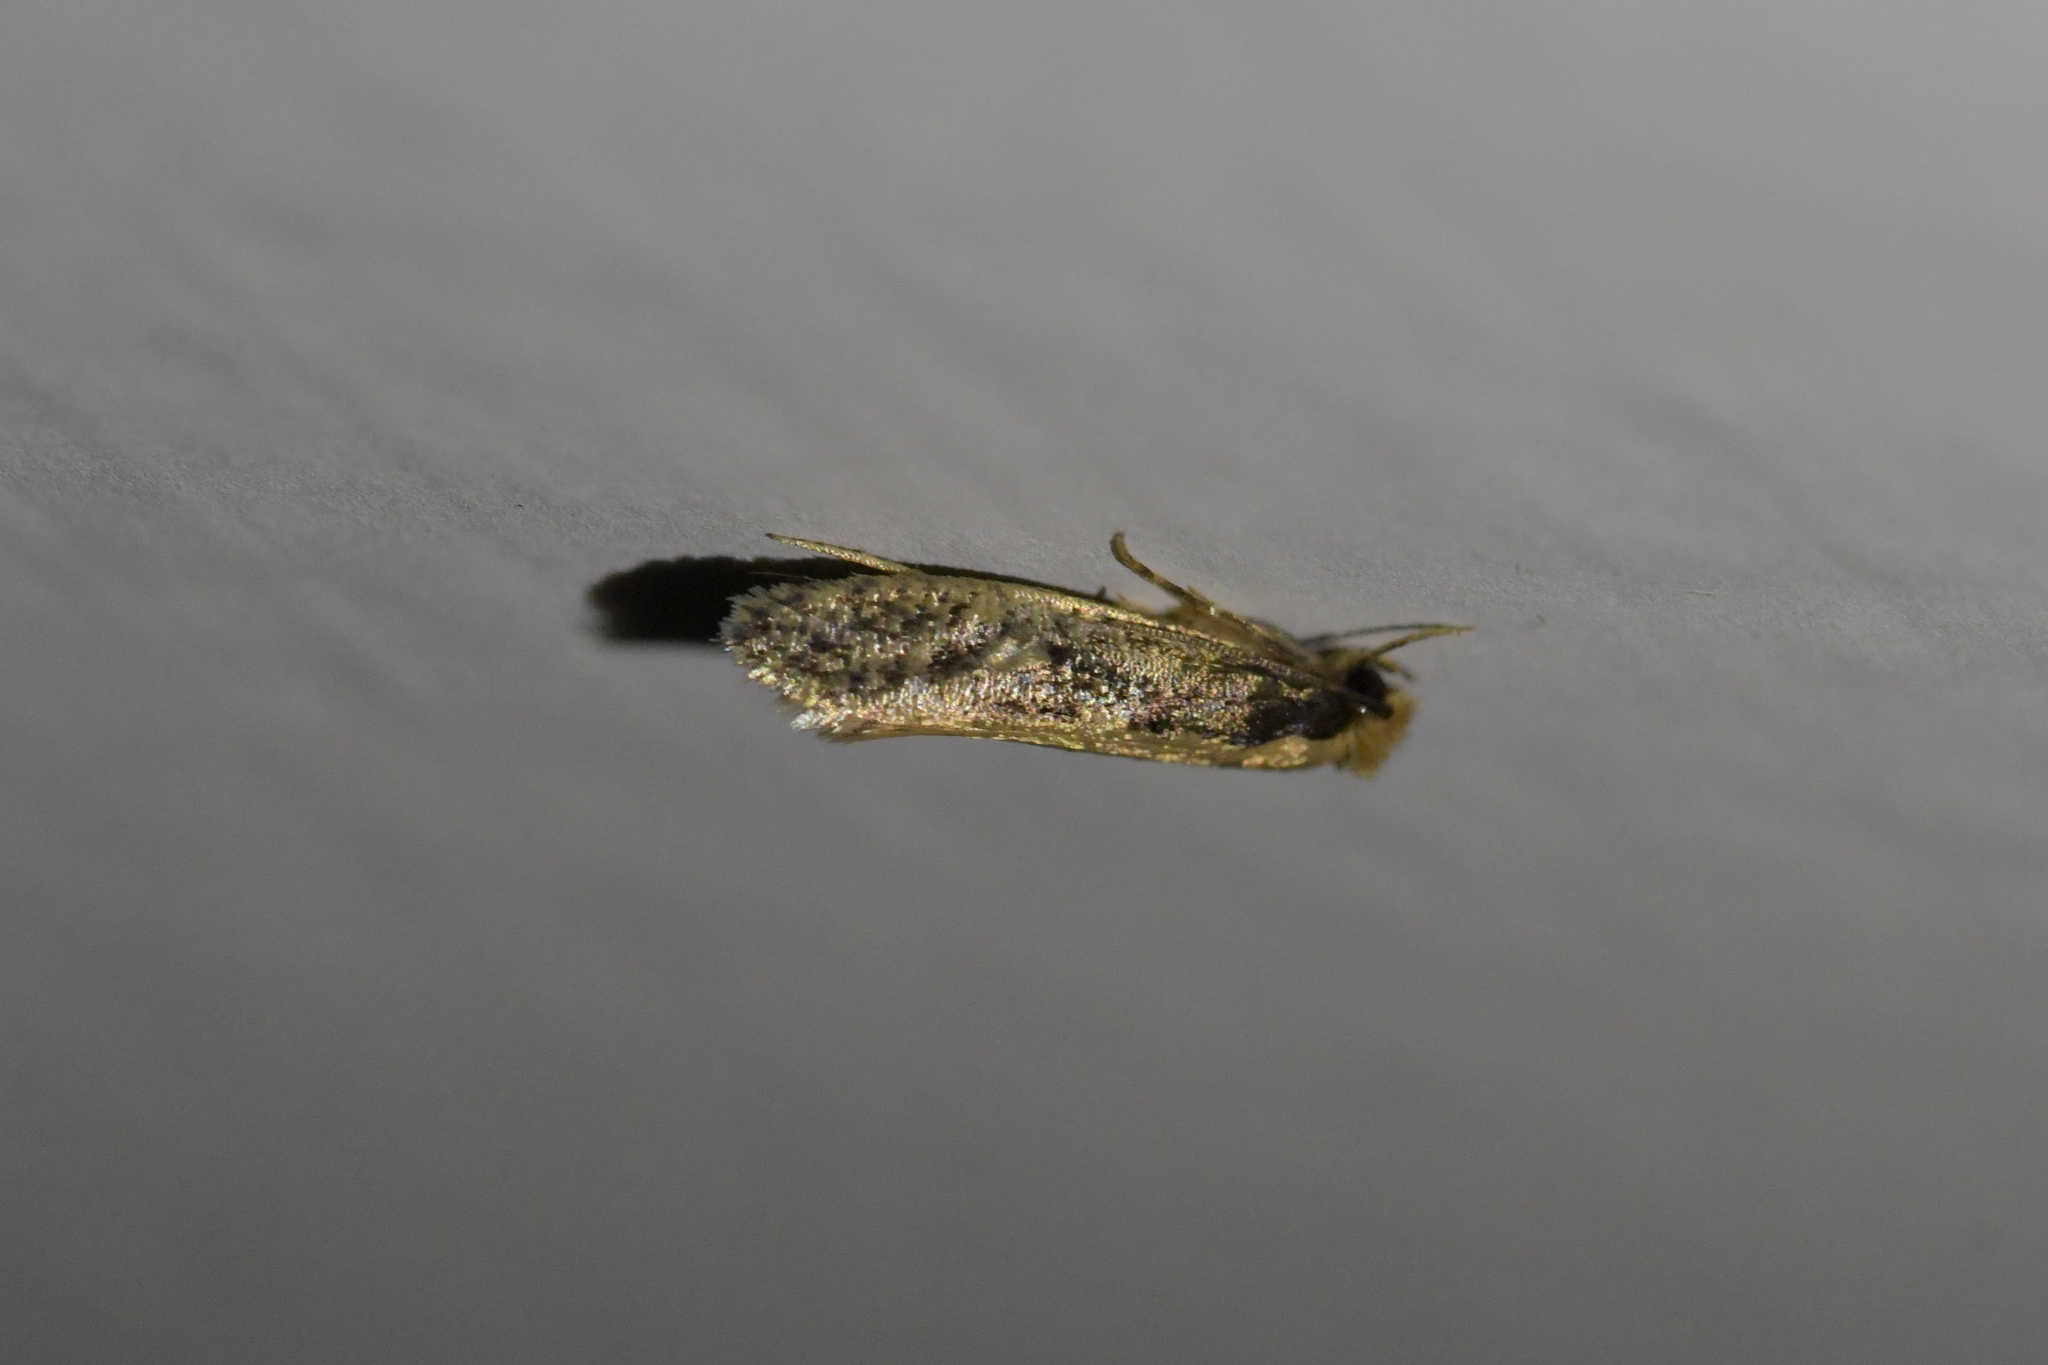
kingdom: Animalia
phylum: Arthropoda
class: Insecta
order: Lepidoptera
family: Tineidae
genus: Monopis
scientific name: Monopis crocicapitella
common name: Moth
